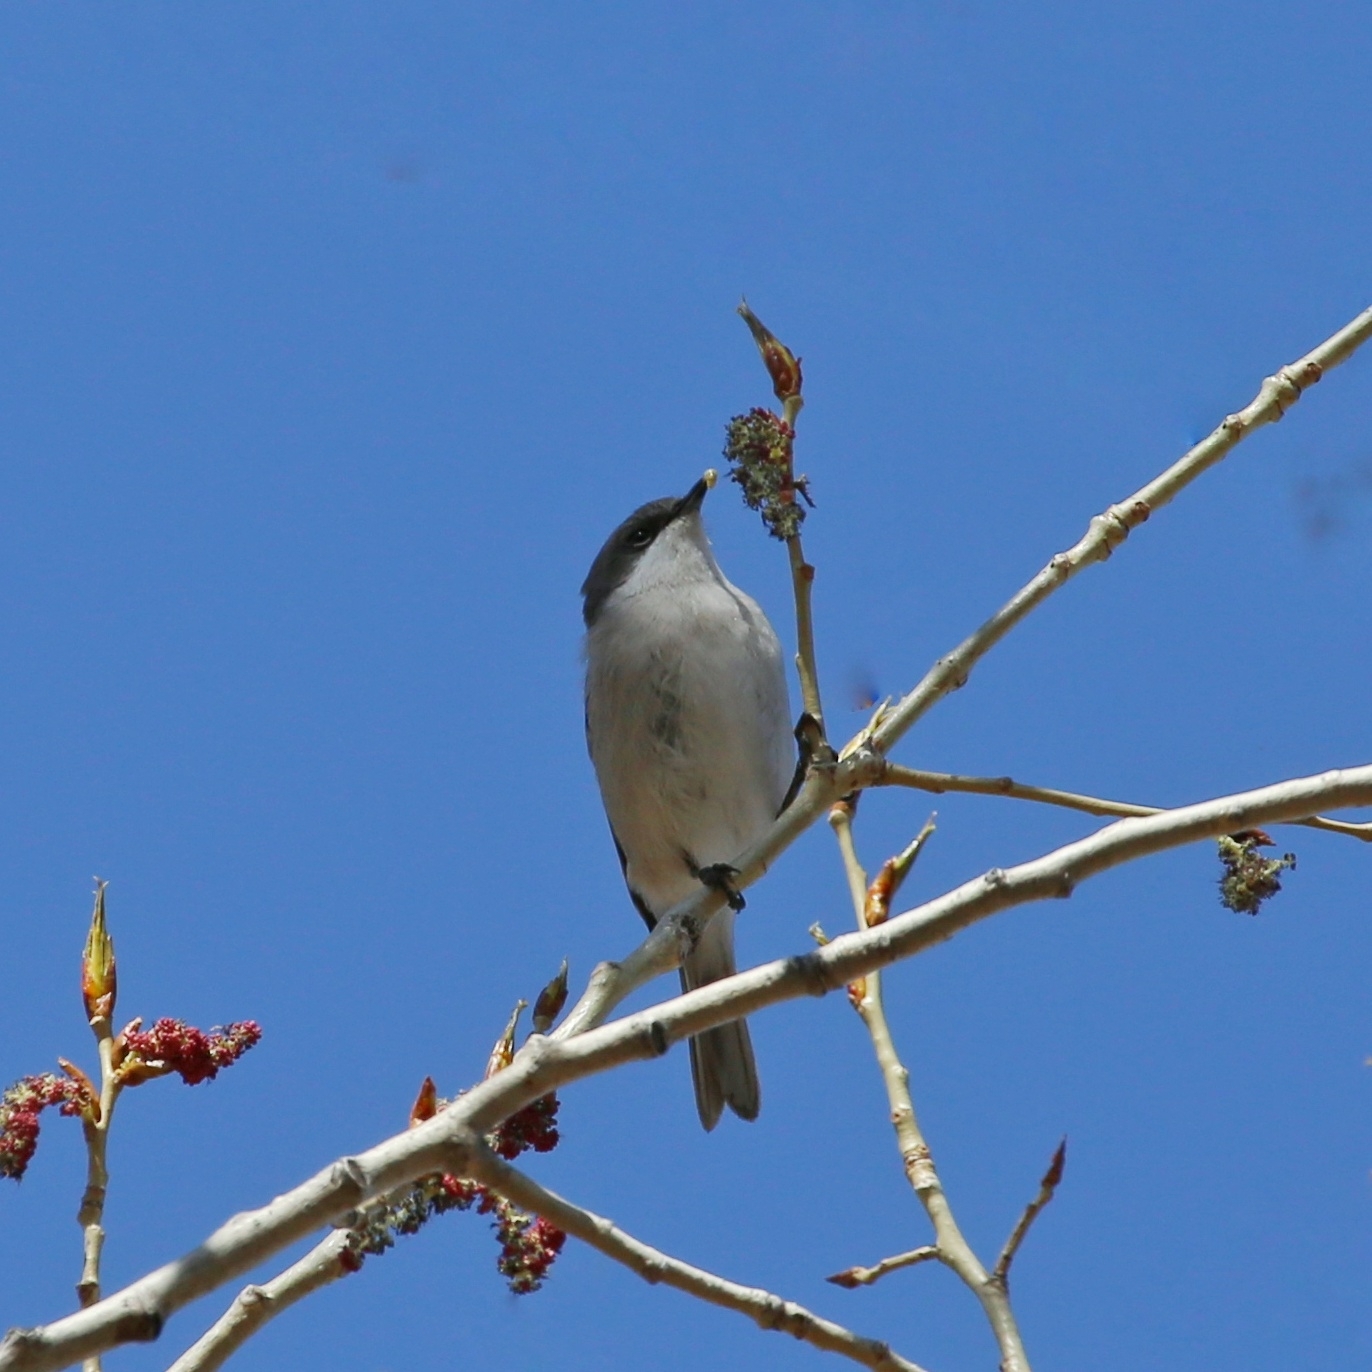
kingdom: Animalia
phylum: Chordata
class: Aves
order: Passeriformes
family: Sylviidae
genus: Sylvia
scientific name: Sylvia curruca
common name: Lesser whitethroat
